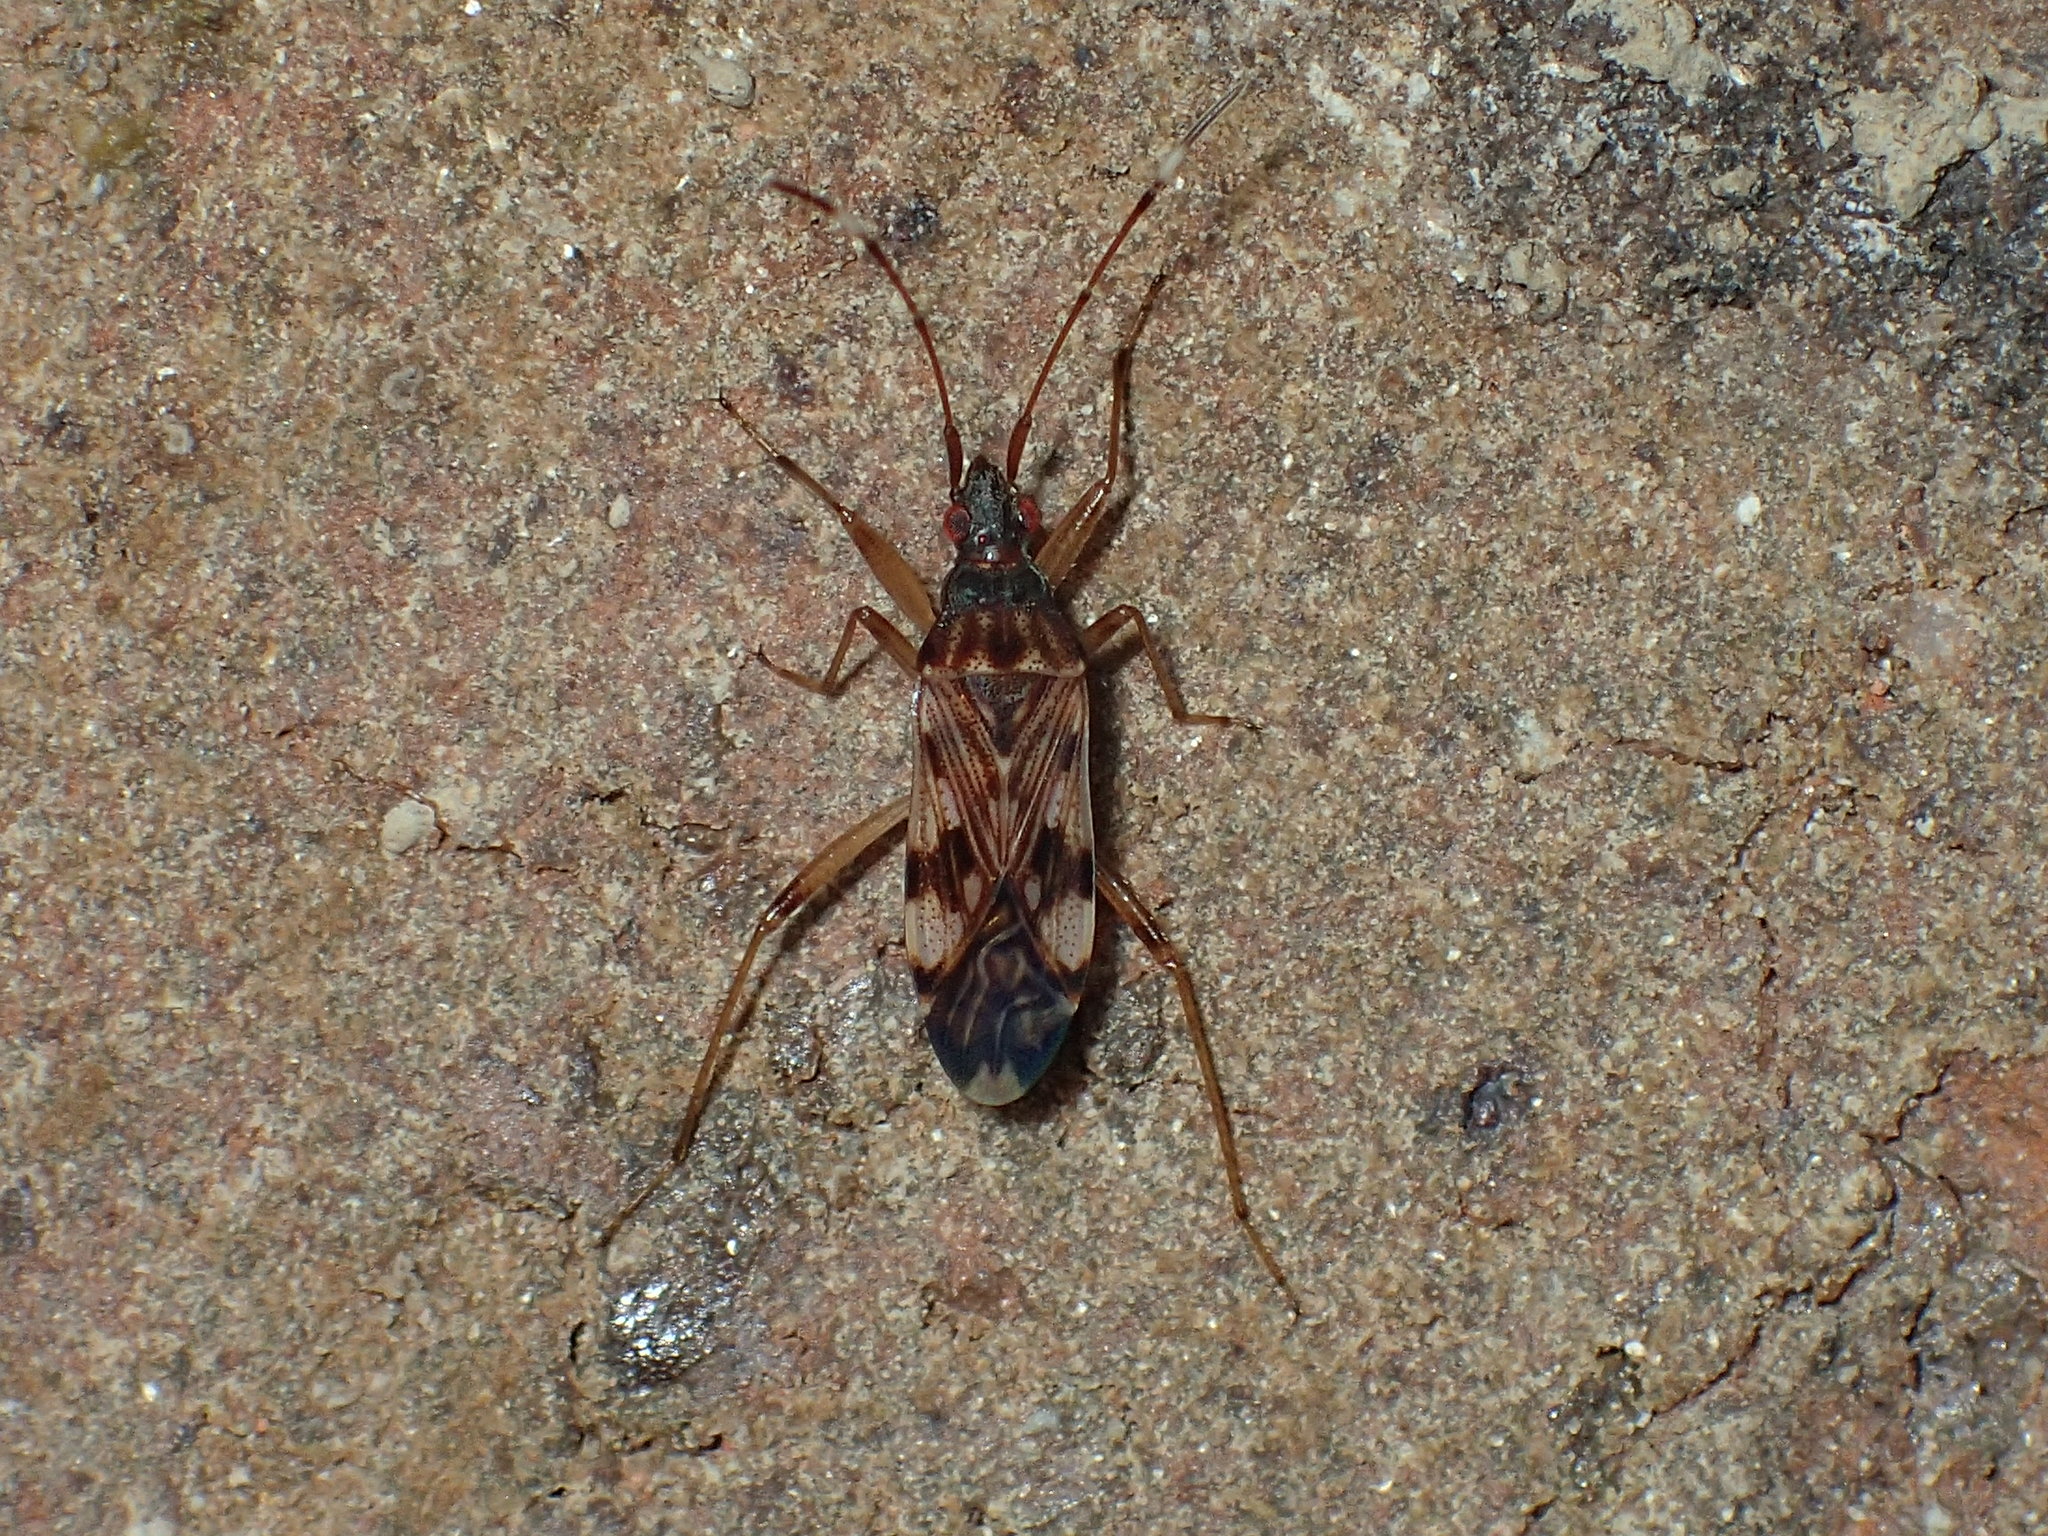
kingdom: Animalia
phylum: Arthropoda
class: Insecta
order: Hemiptera
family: Rhyparochromidae
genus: Ozophora
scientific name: Ozophora picturata
